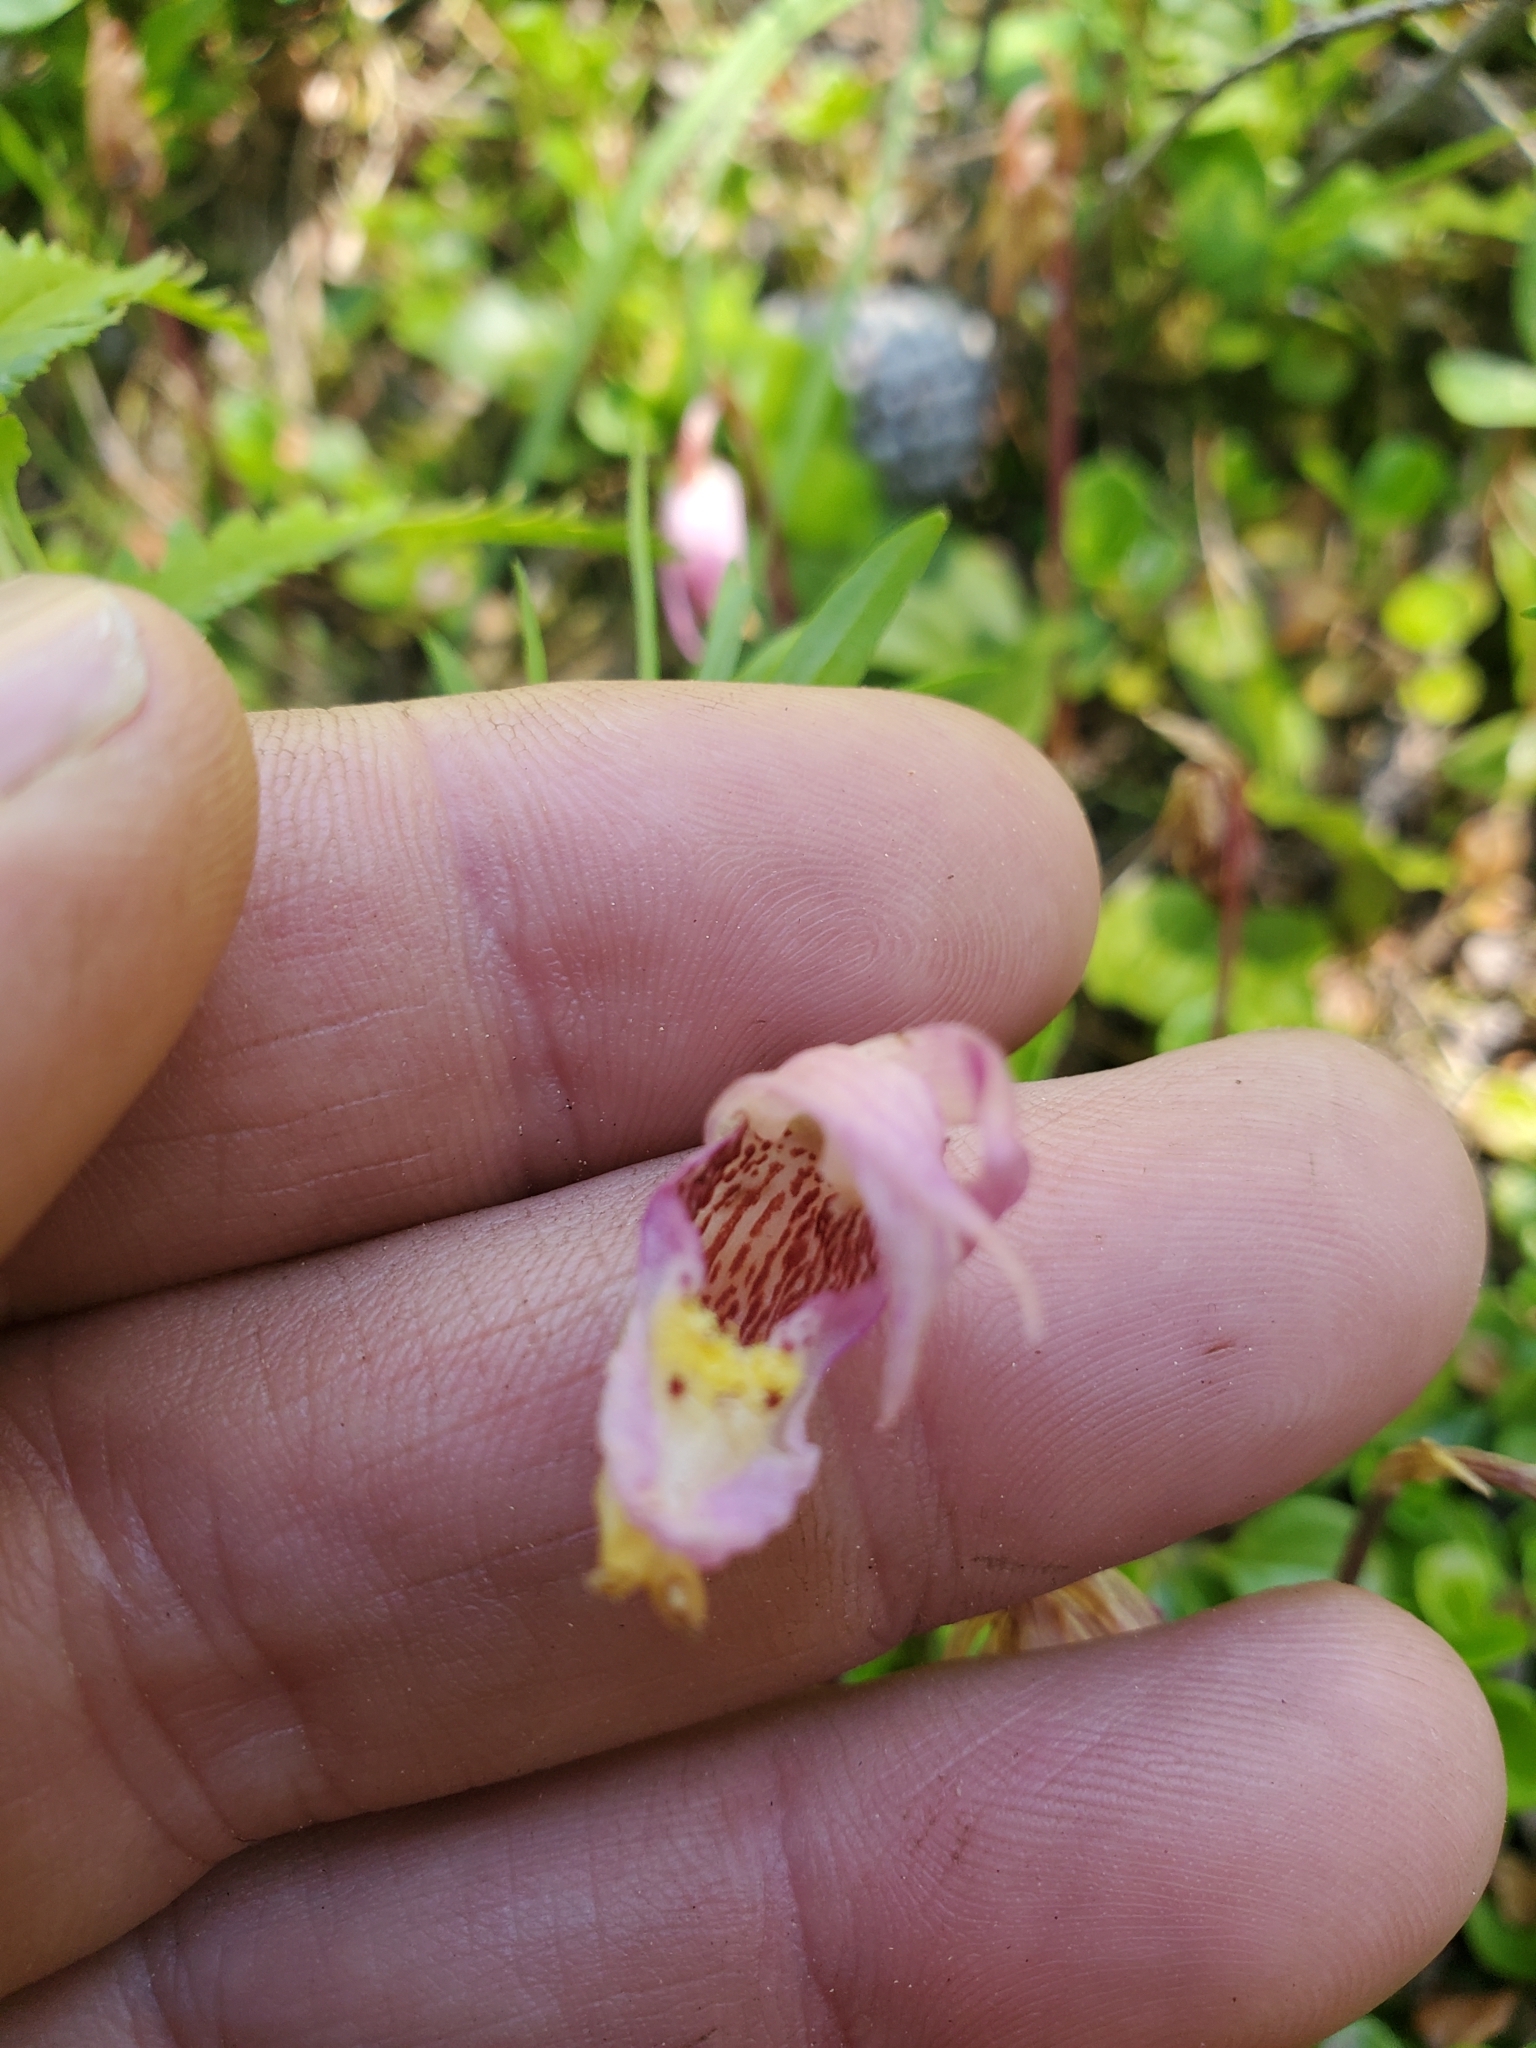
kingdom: Plantae
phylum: Tracheophyta
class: Liliopsida
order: Asparagales
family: Orchidaceae
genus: Calypso
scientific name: Calypso bulbosa
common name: Calypso
